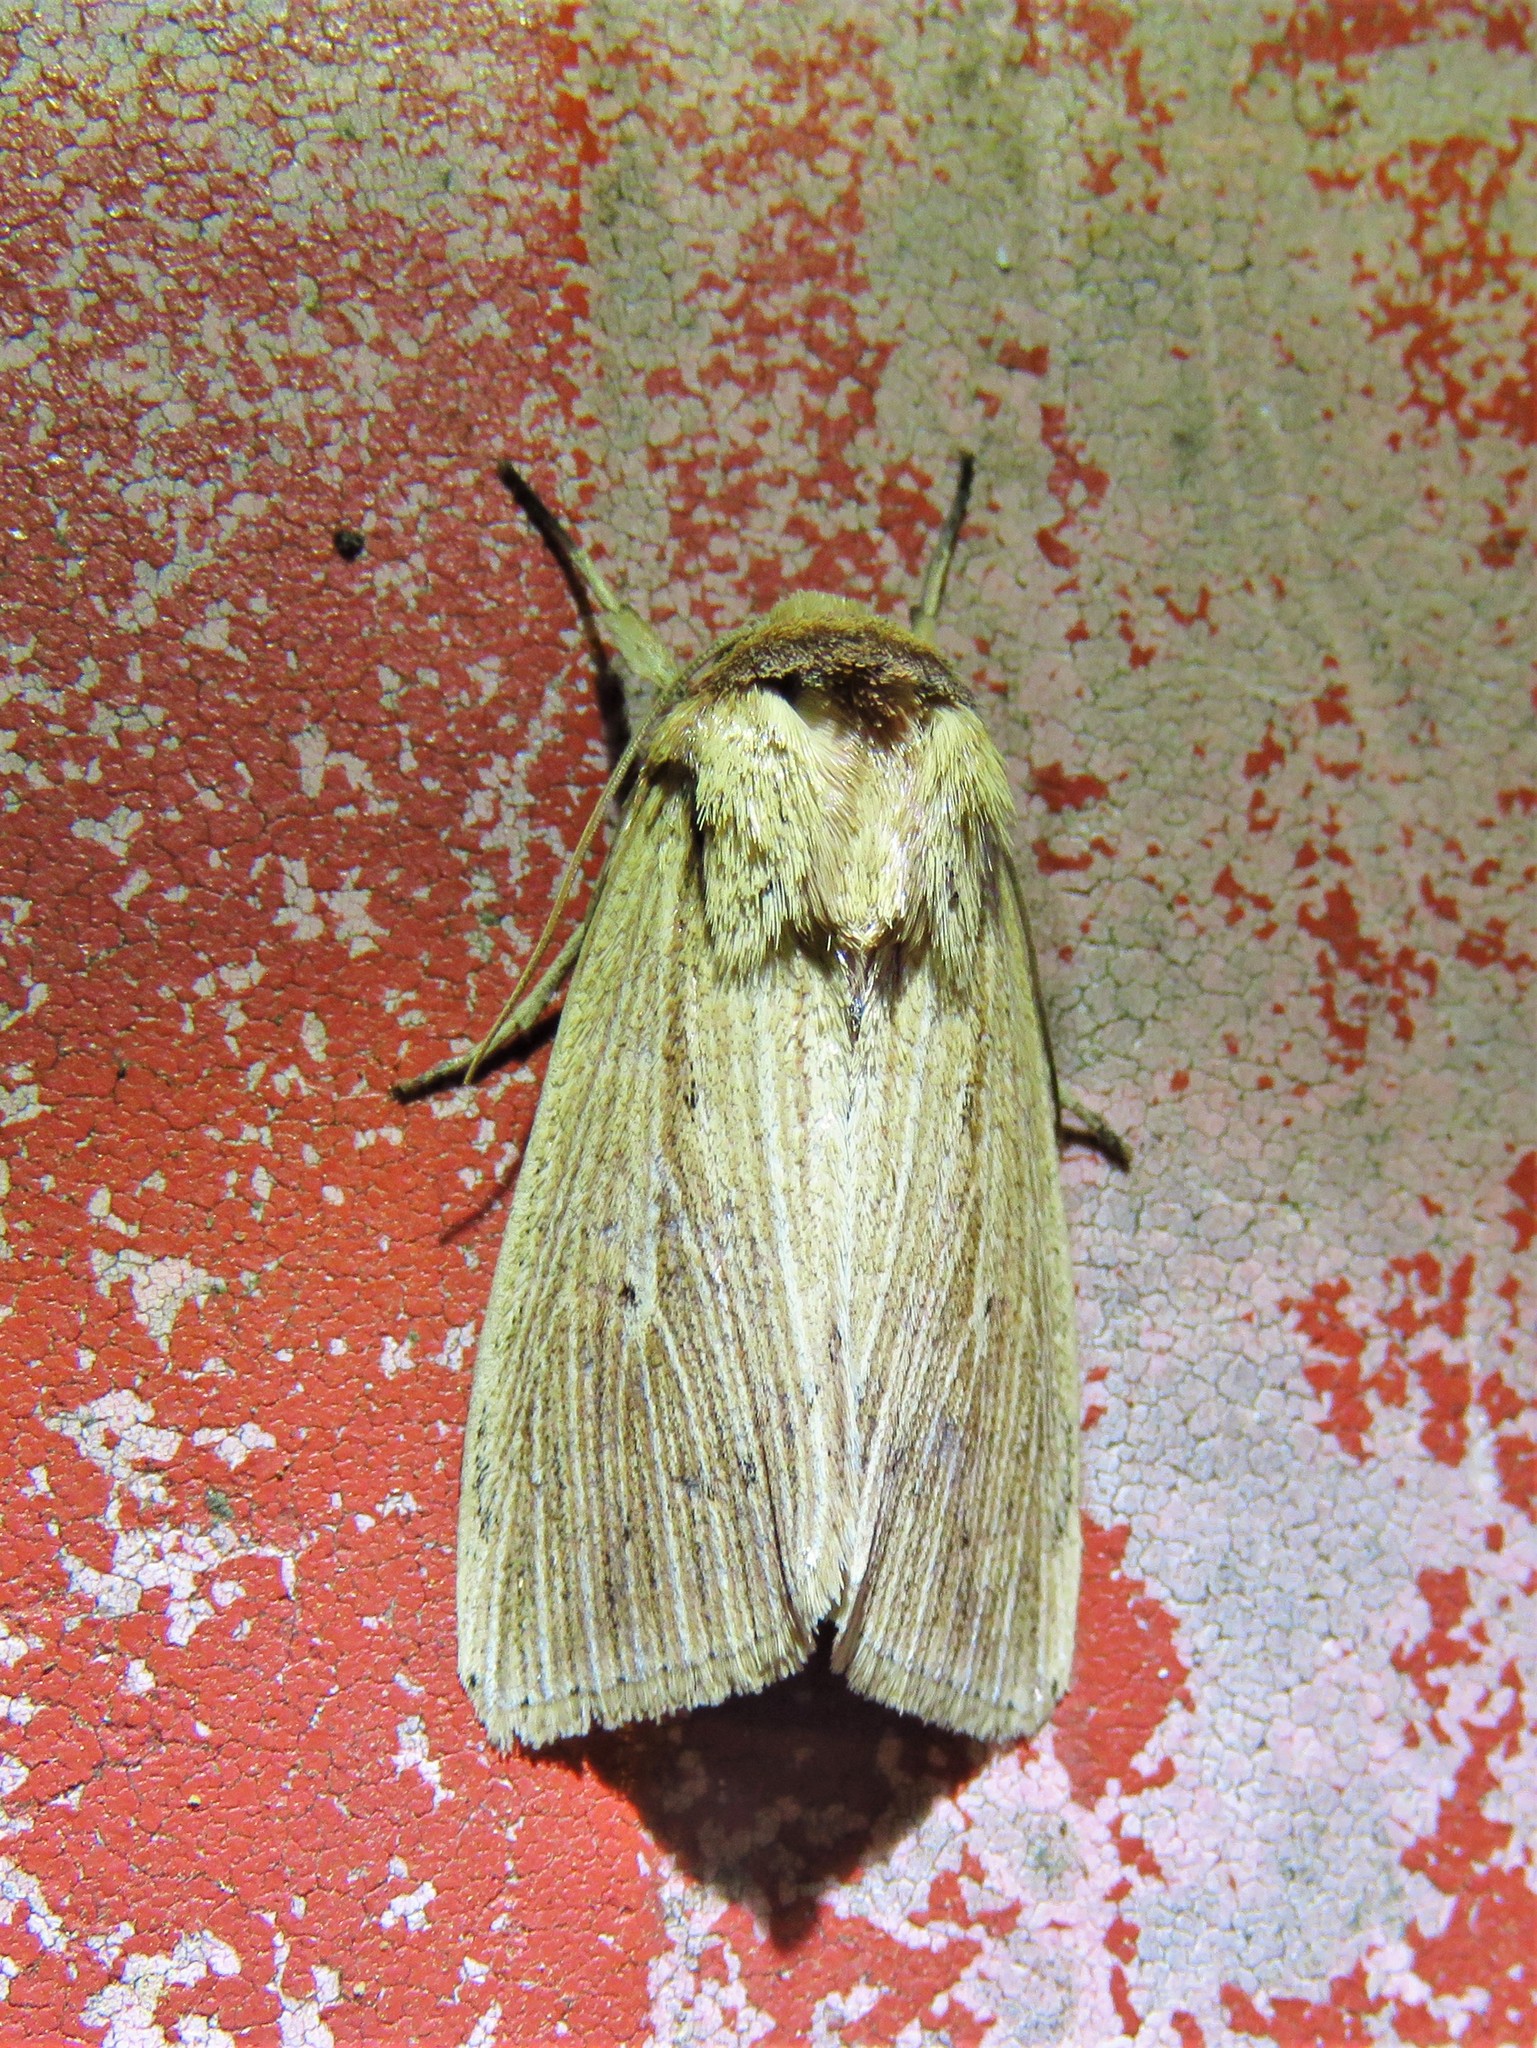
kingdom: Animalia
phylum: Arthropoda
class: Insecta
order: Lepidoptera
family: Noctuidae
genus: Leucania
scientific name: Leucania adjuta
